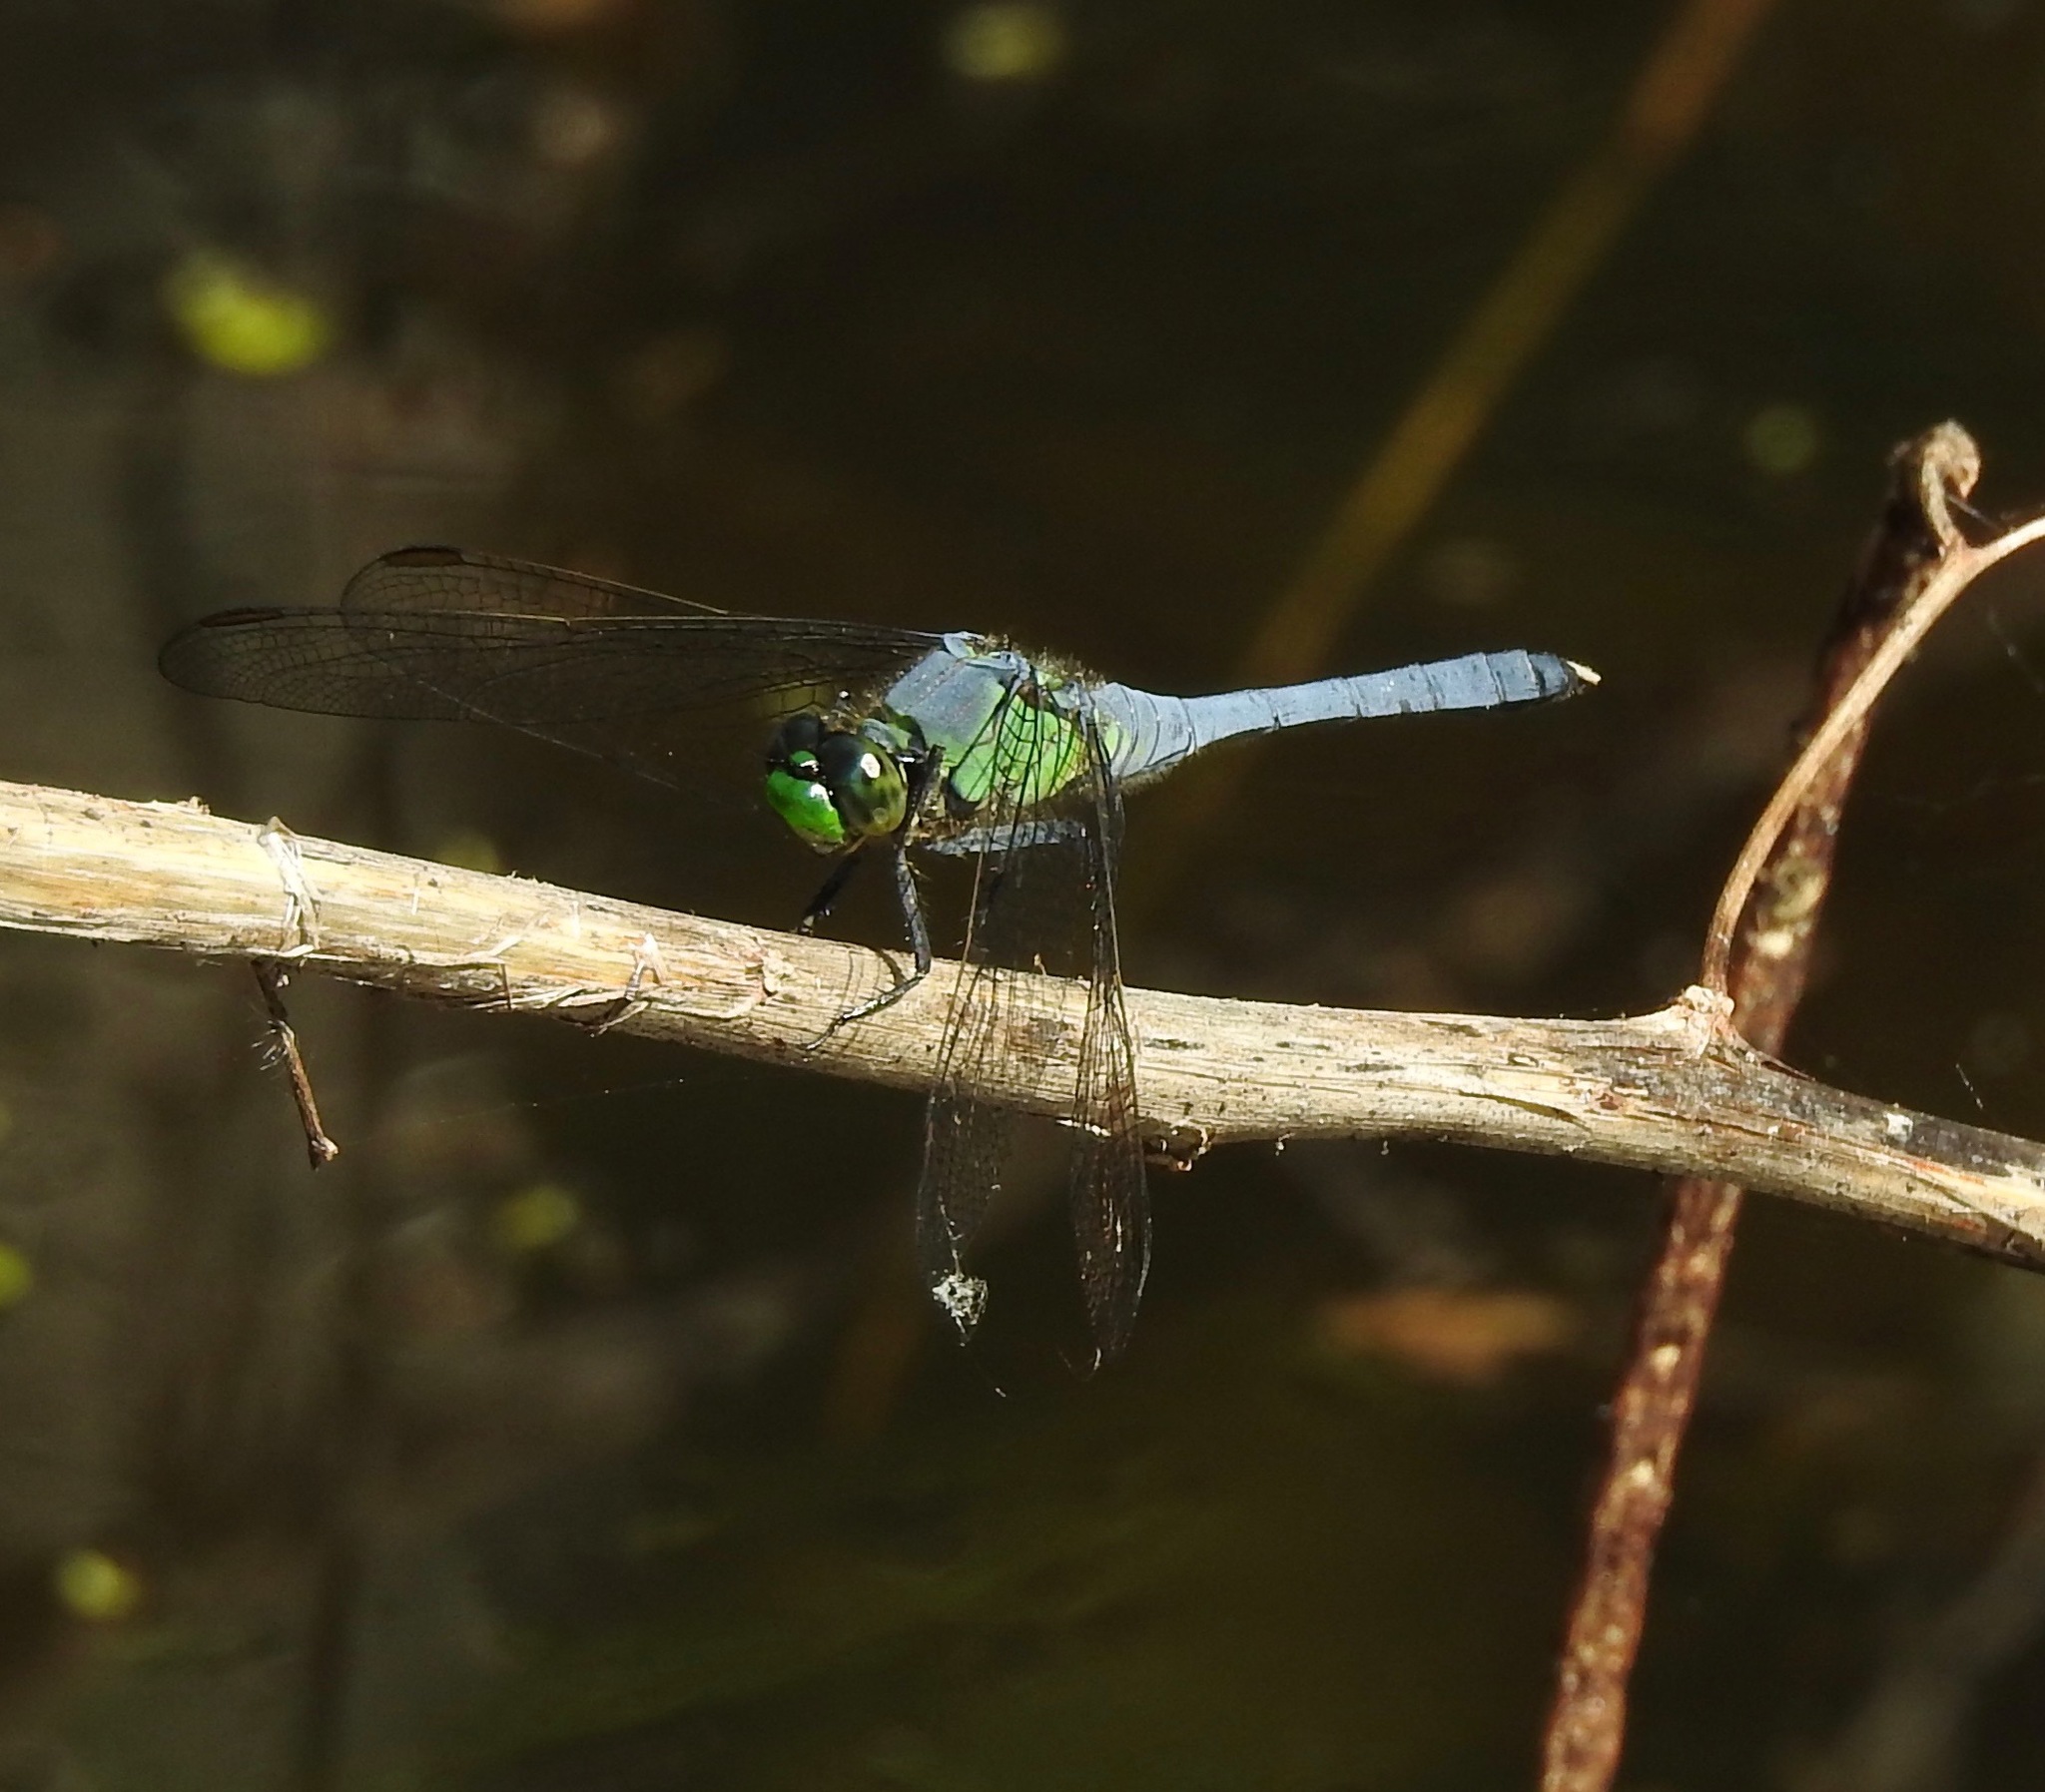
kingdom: Animalia
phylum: Arthropoda
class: Insecta
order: Odonata
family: Libellulidae
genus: Erythemis
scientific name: Erythemis simplicicollis
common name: Eastern pondhawk
